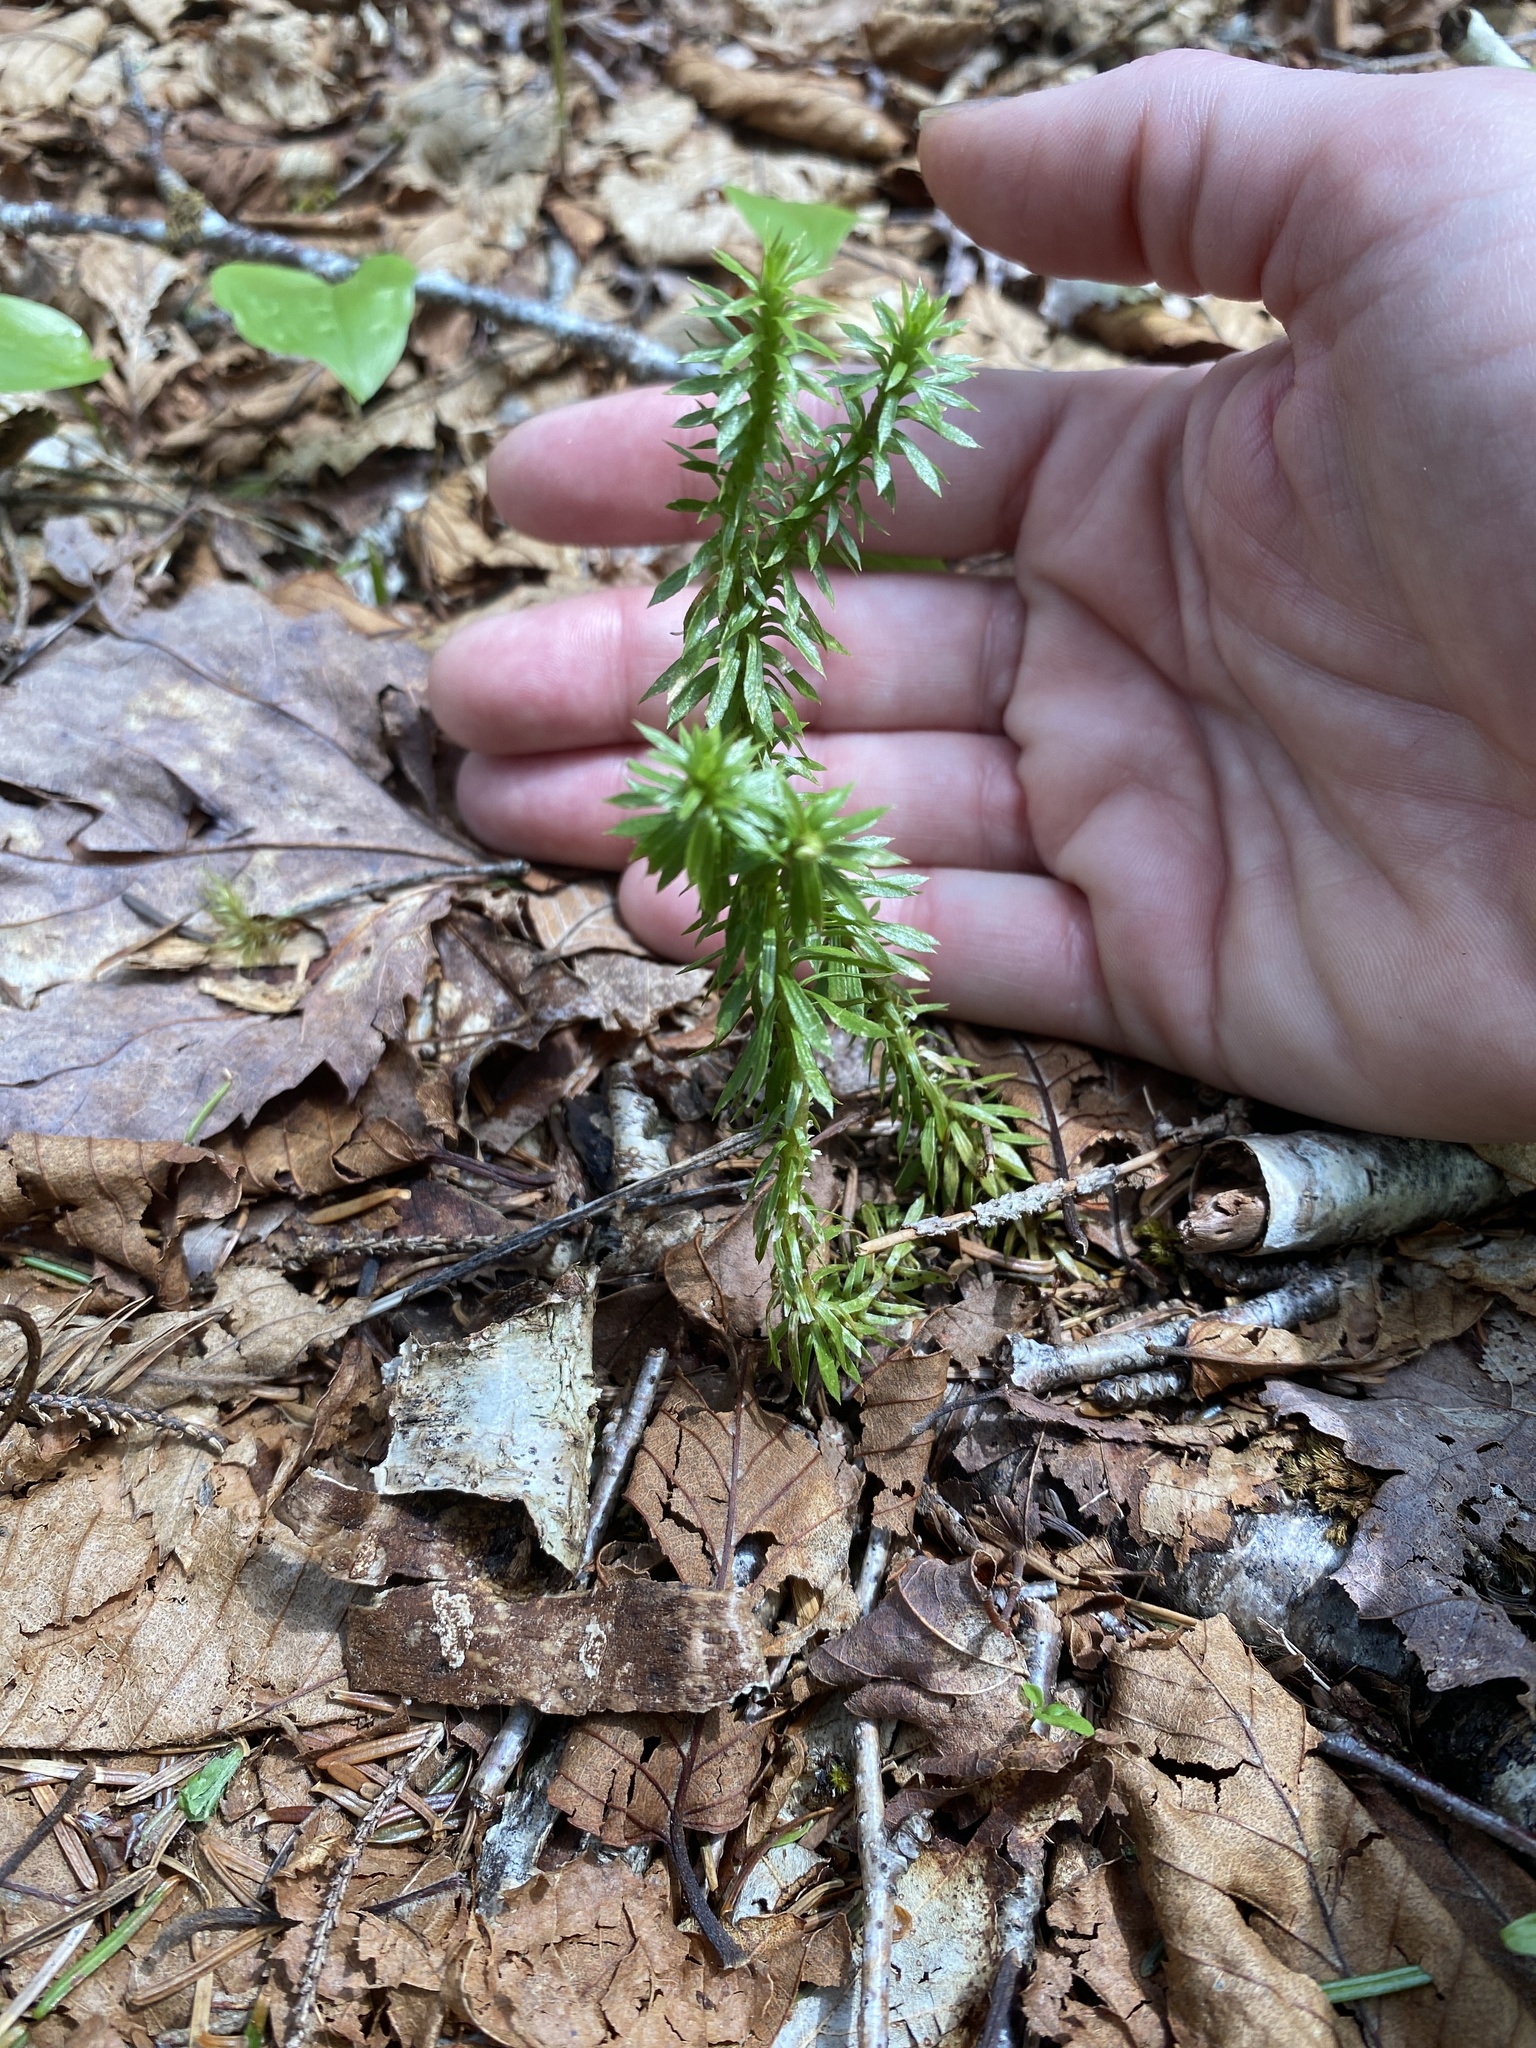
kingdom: Plantae
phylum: Tracheophyta
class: Lycopodiopsida
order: Lycopodiales
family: Lycopodiaceae
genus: Huperzia
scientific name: Huperzia lucidula
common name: Shining clubmoss
